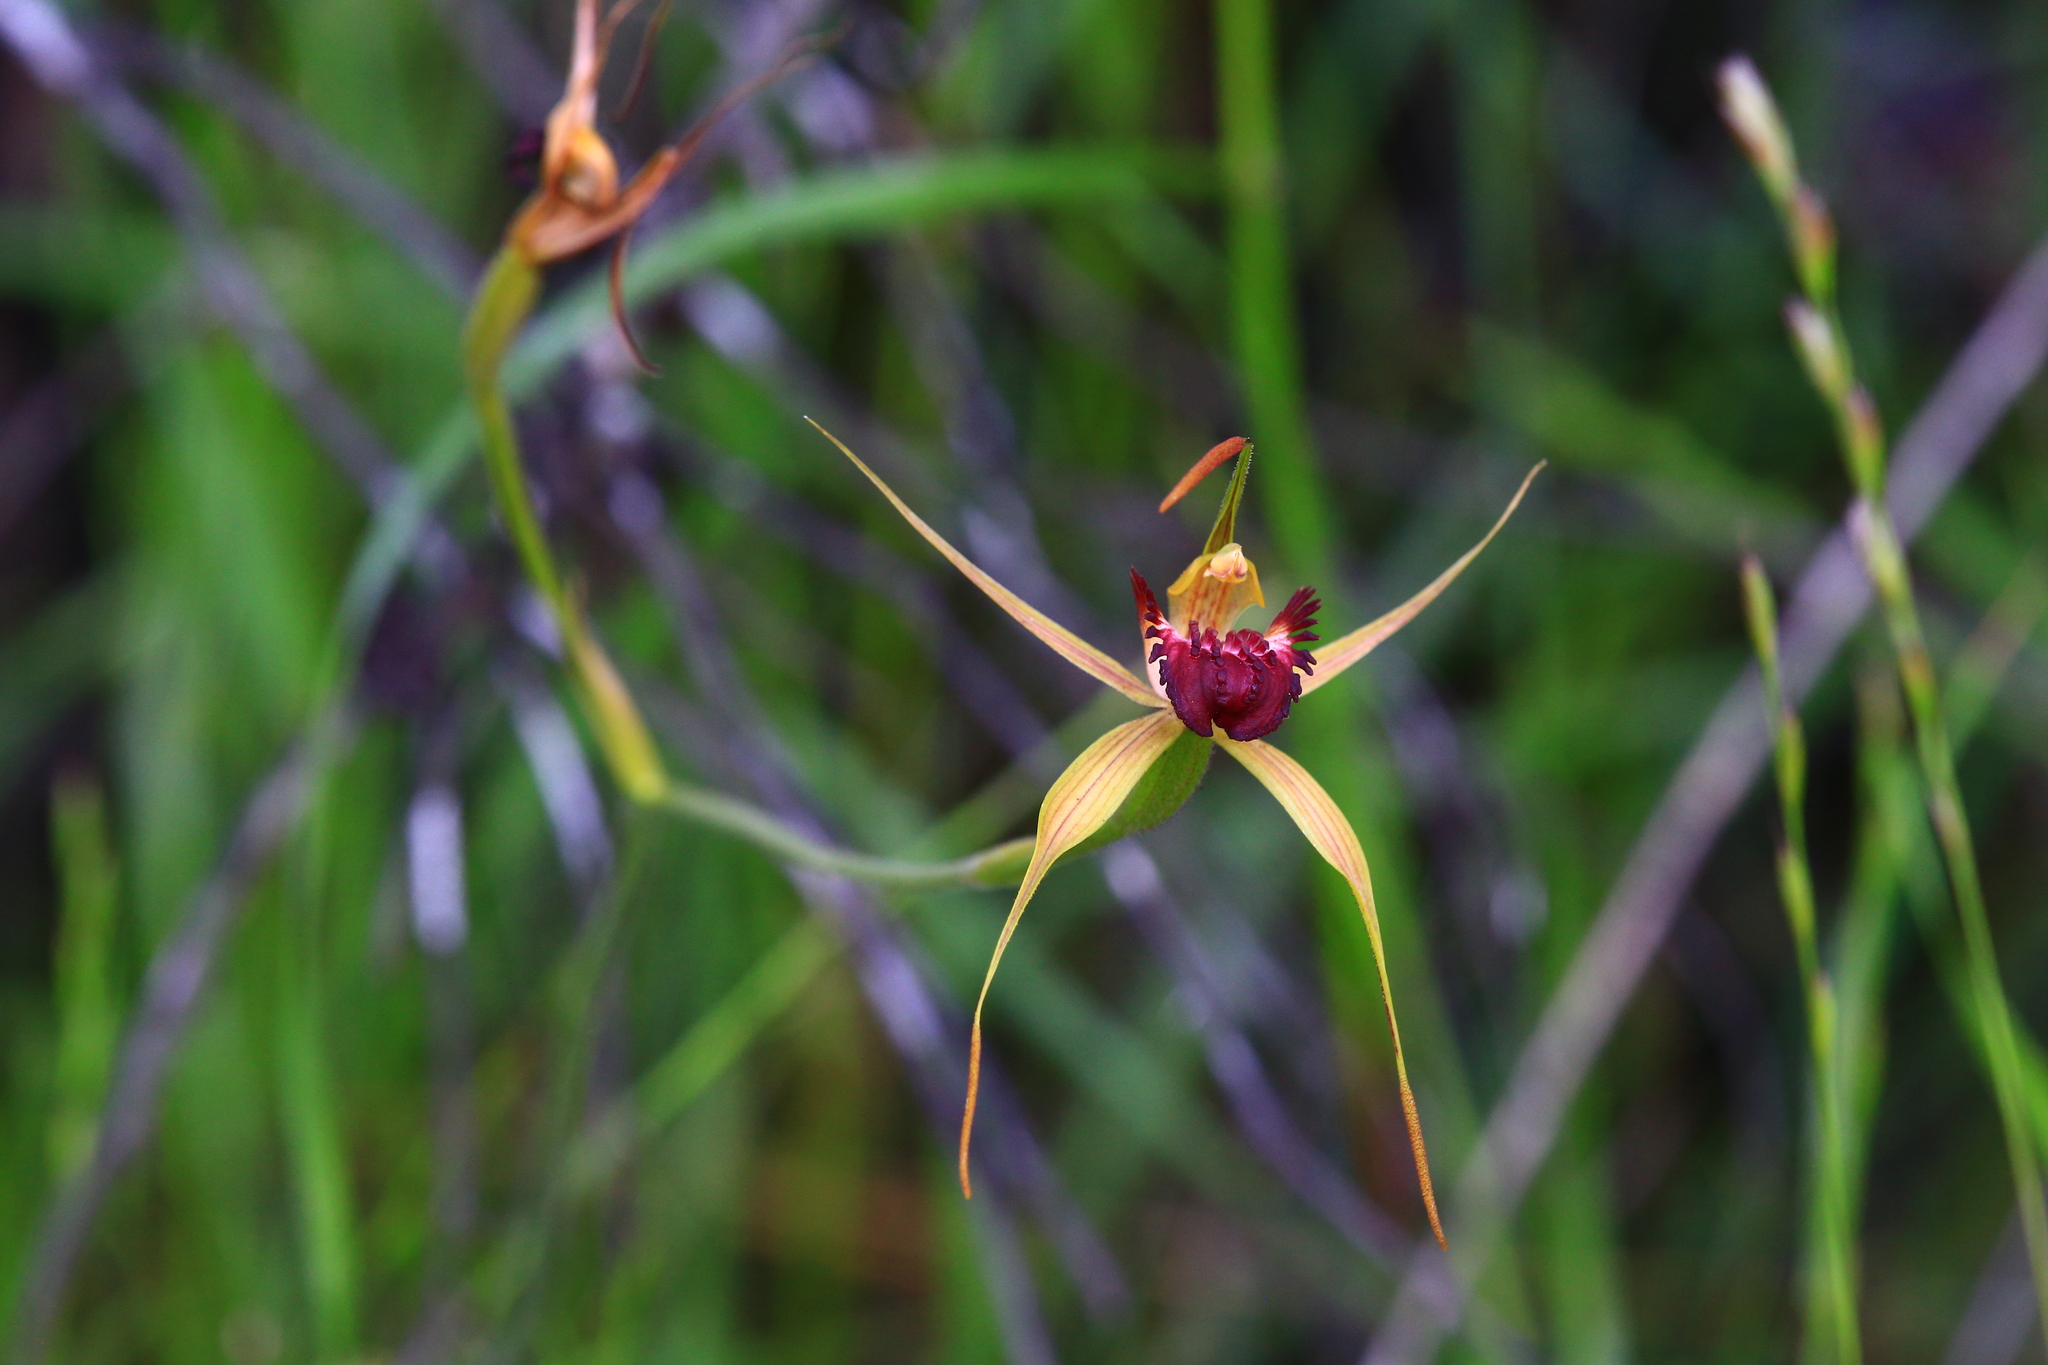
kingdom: Plantae
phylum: Tracheophyta
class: Liliopsida
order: Asparagales
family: Orchidaceae
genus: Caladenia
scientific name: Caladenia paludosa
